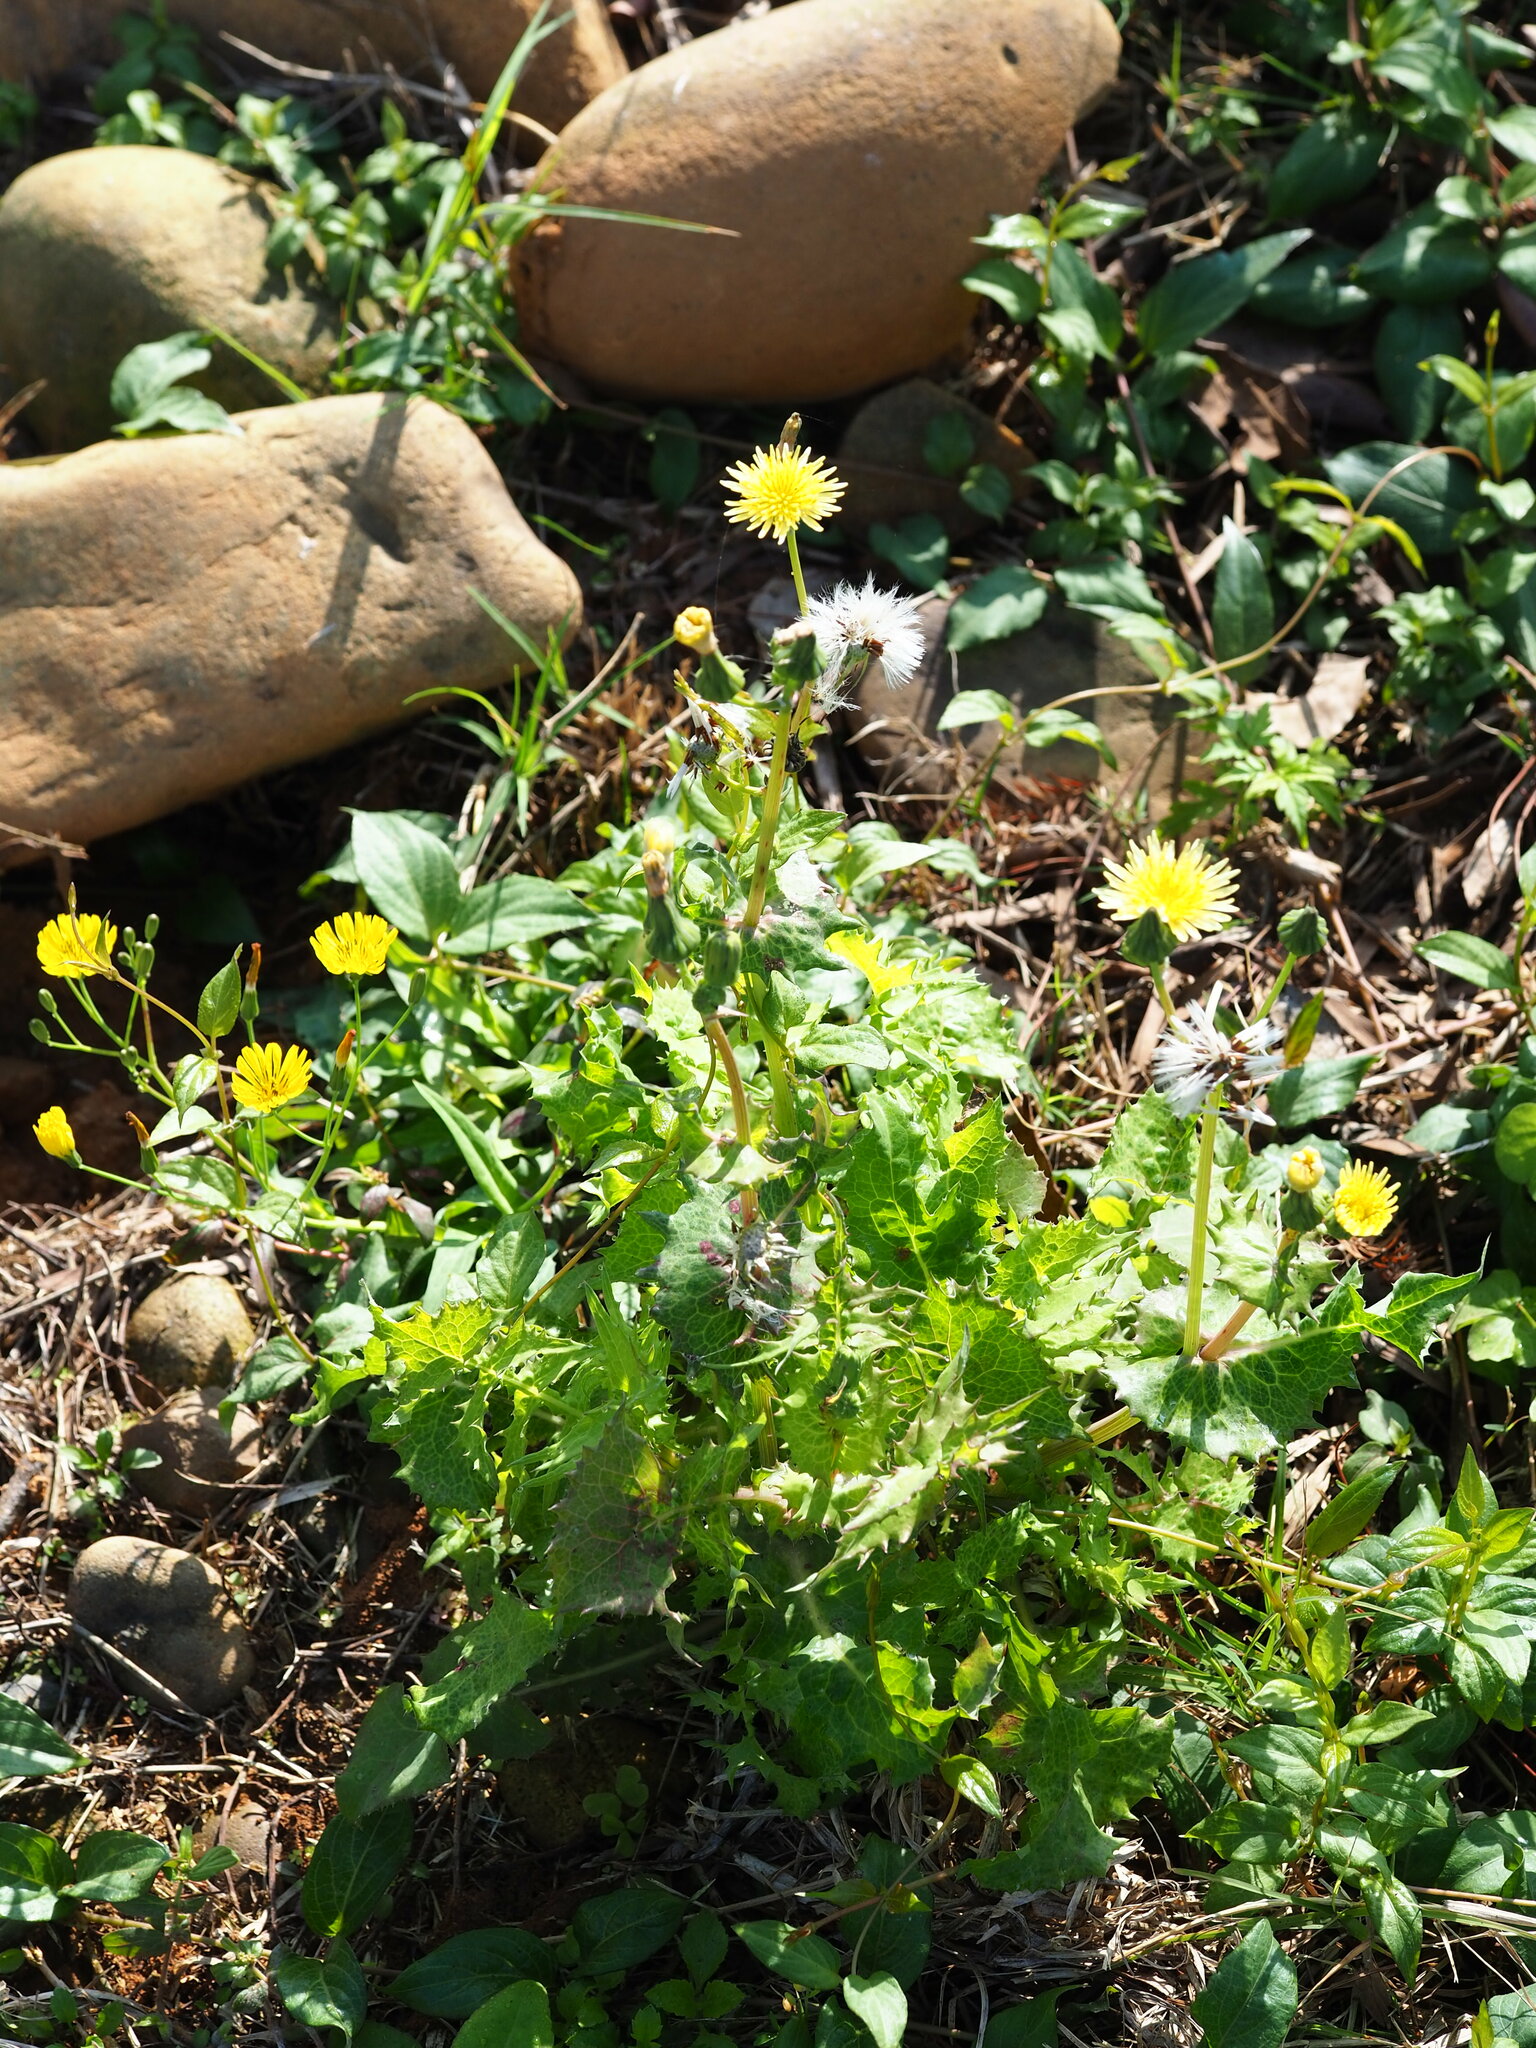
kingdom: Plantae
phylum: Tracheophyta
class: Magnoliopsida
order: Asterales
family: Asteraceae
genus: Sonchus
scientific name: Sonchus oleraceus
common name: Common sowthistle
